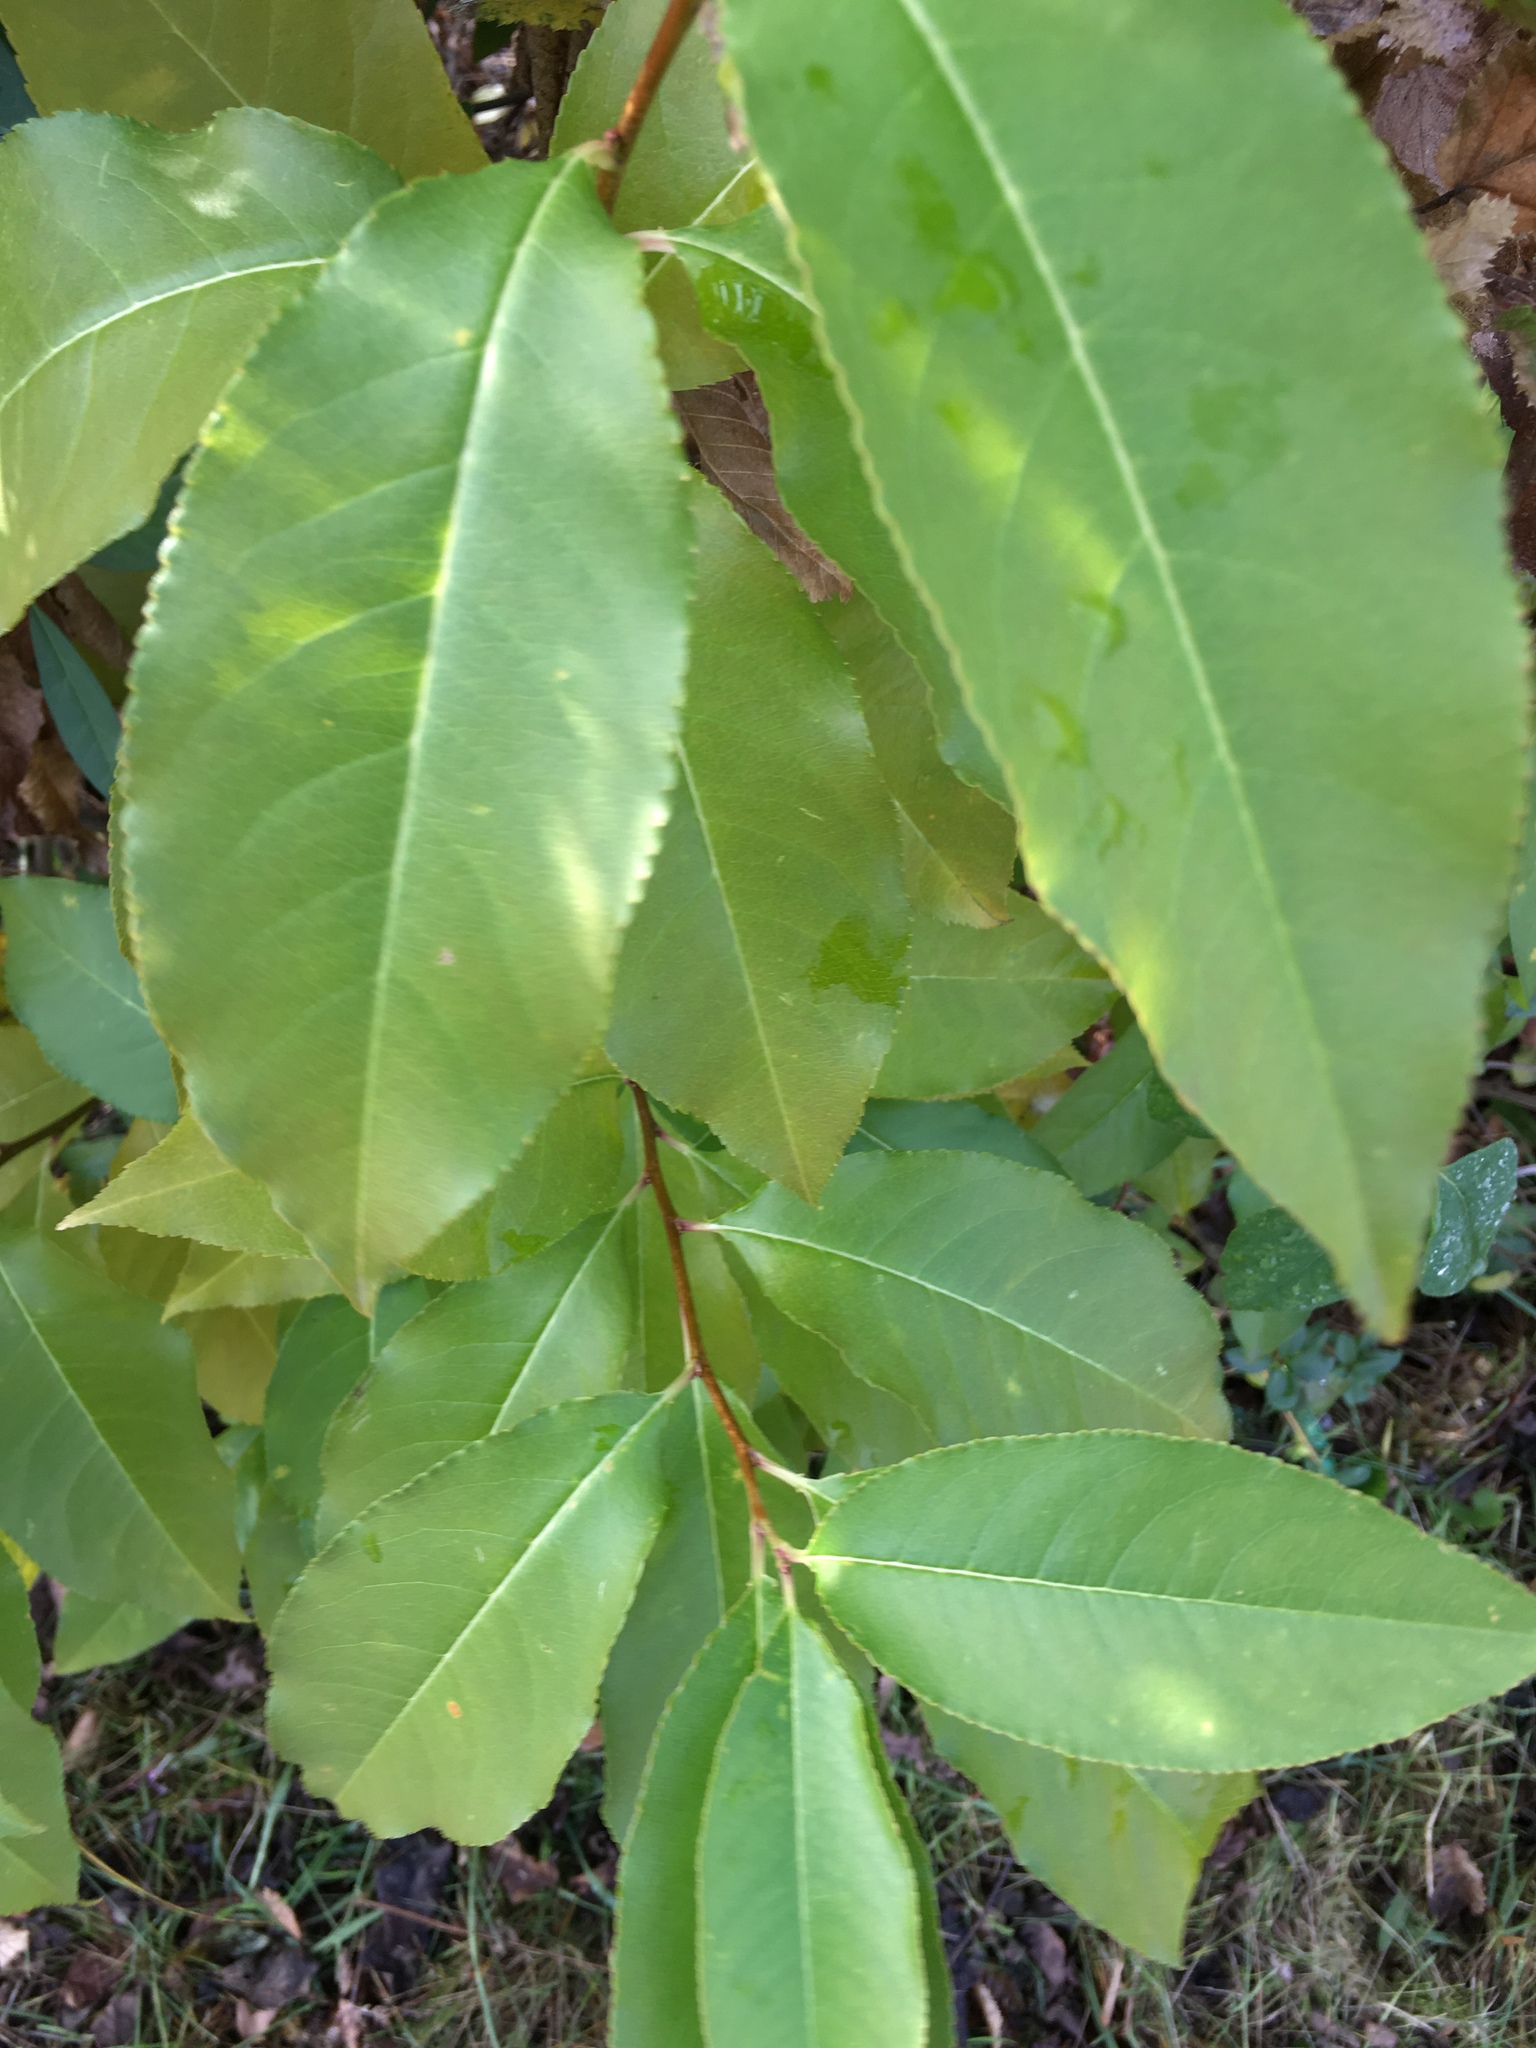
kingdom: Plantae
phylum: Tracheophyta
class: Magnoliopsida
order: Rosales
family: Rosaceae
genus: Prunus
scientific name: Prunus serotina
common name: Black cherry
